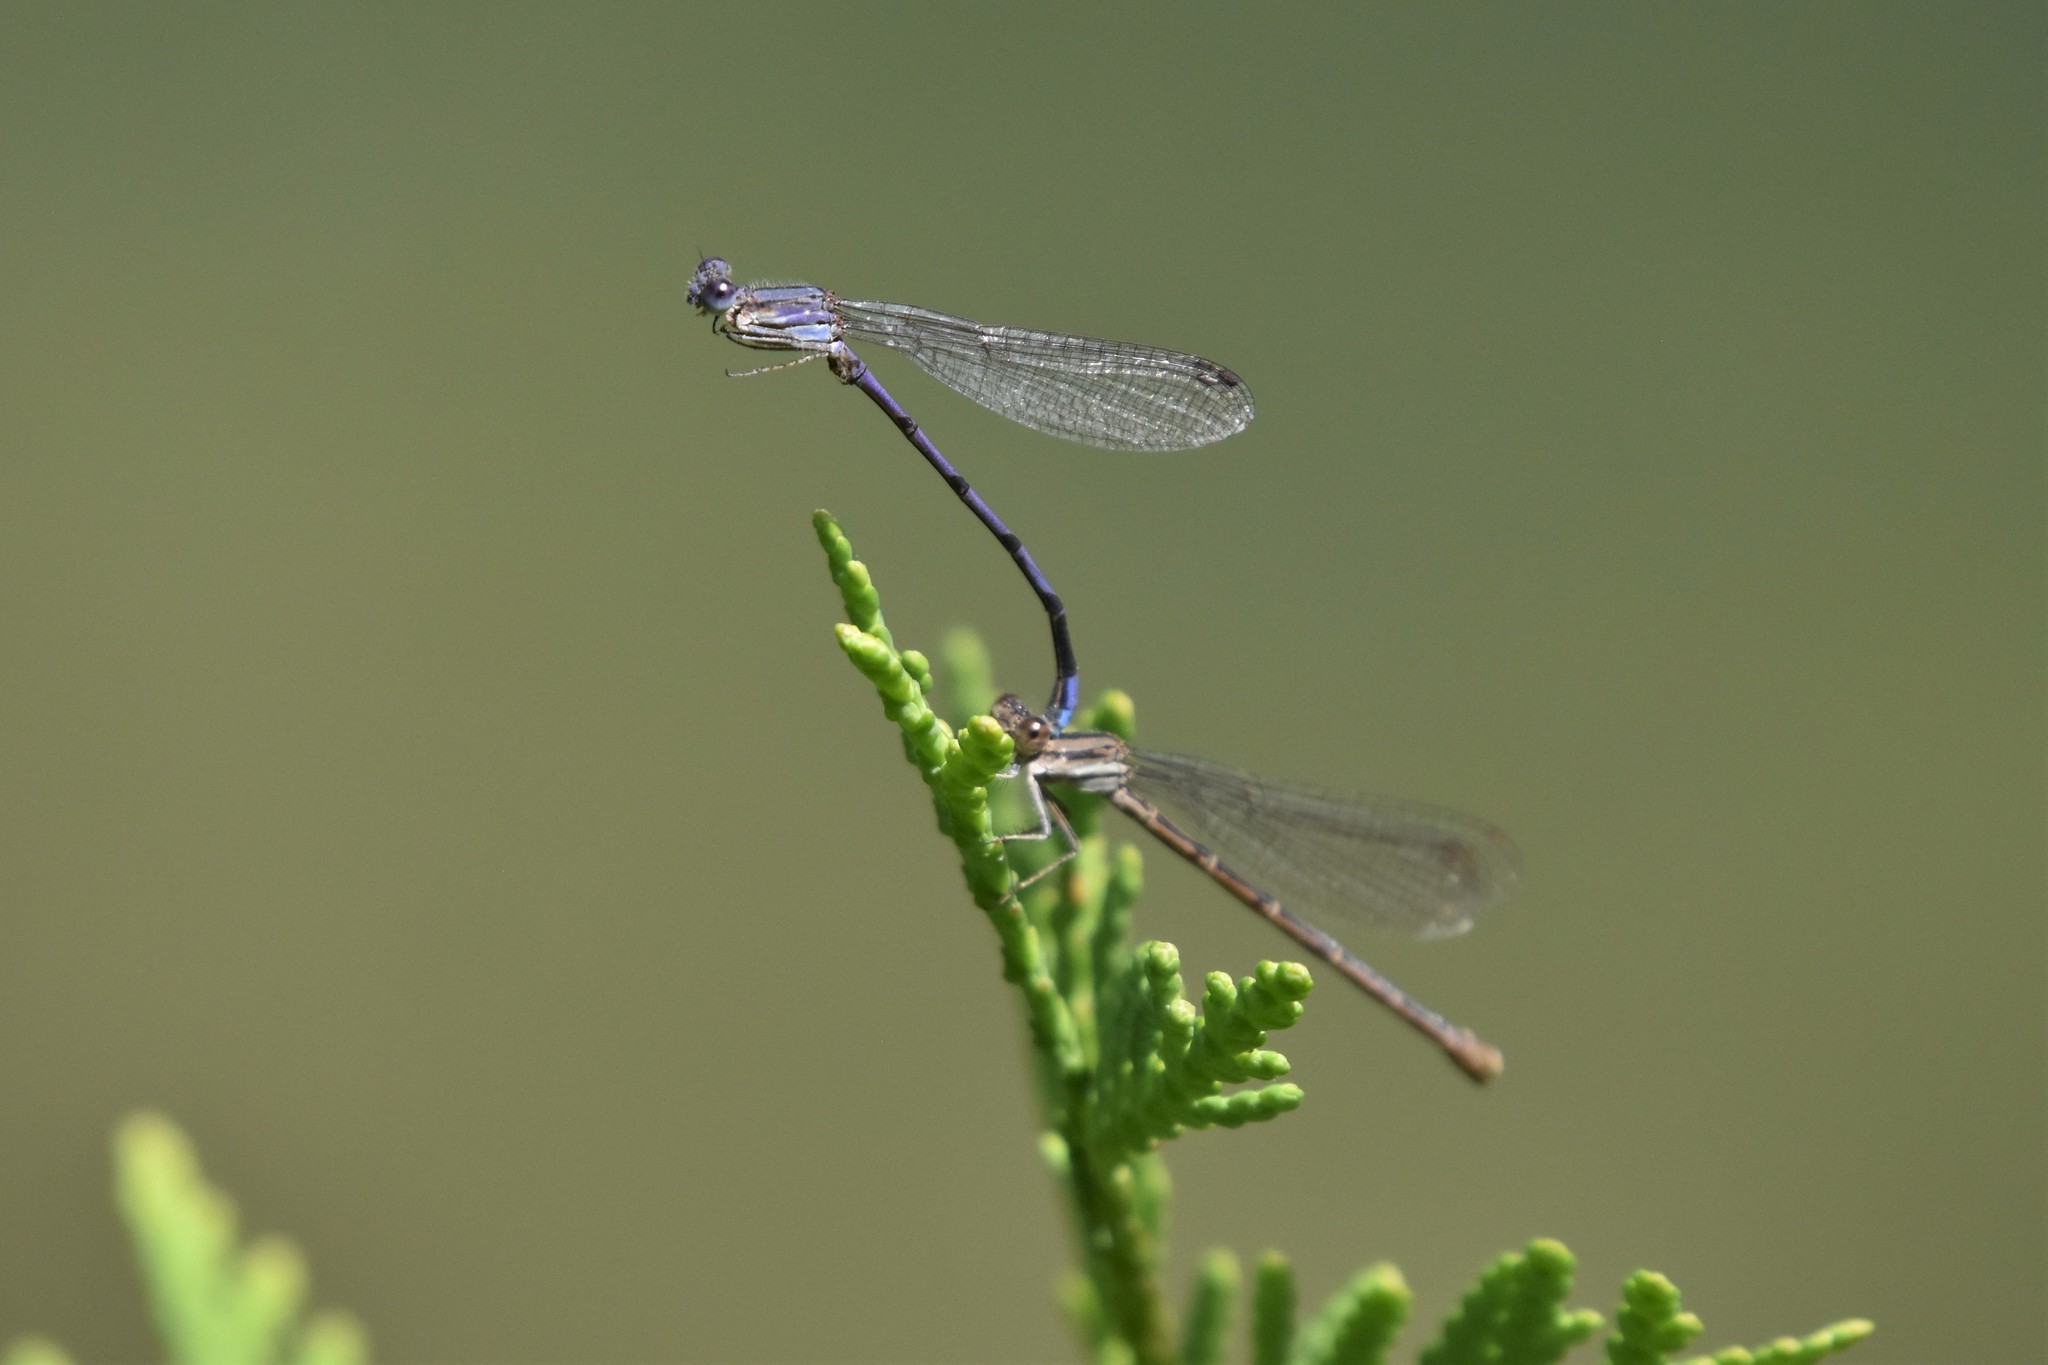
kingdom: Animalia
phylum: Arthropoda
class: Insecta
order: Odonata
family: Coenagrionidae
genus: Argia
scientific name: Argia fumipennis
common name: Variable dancer
